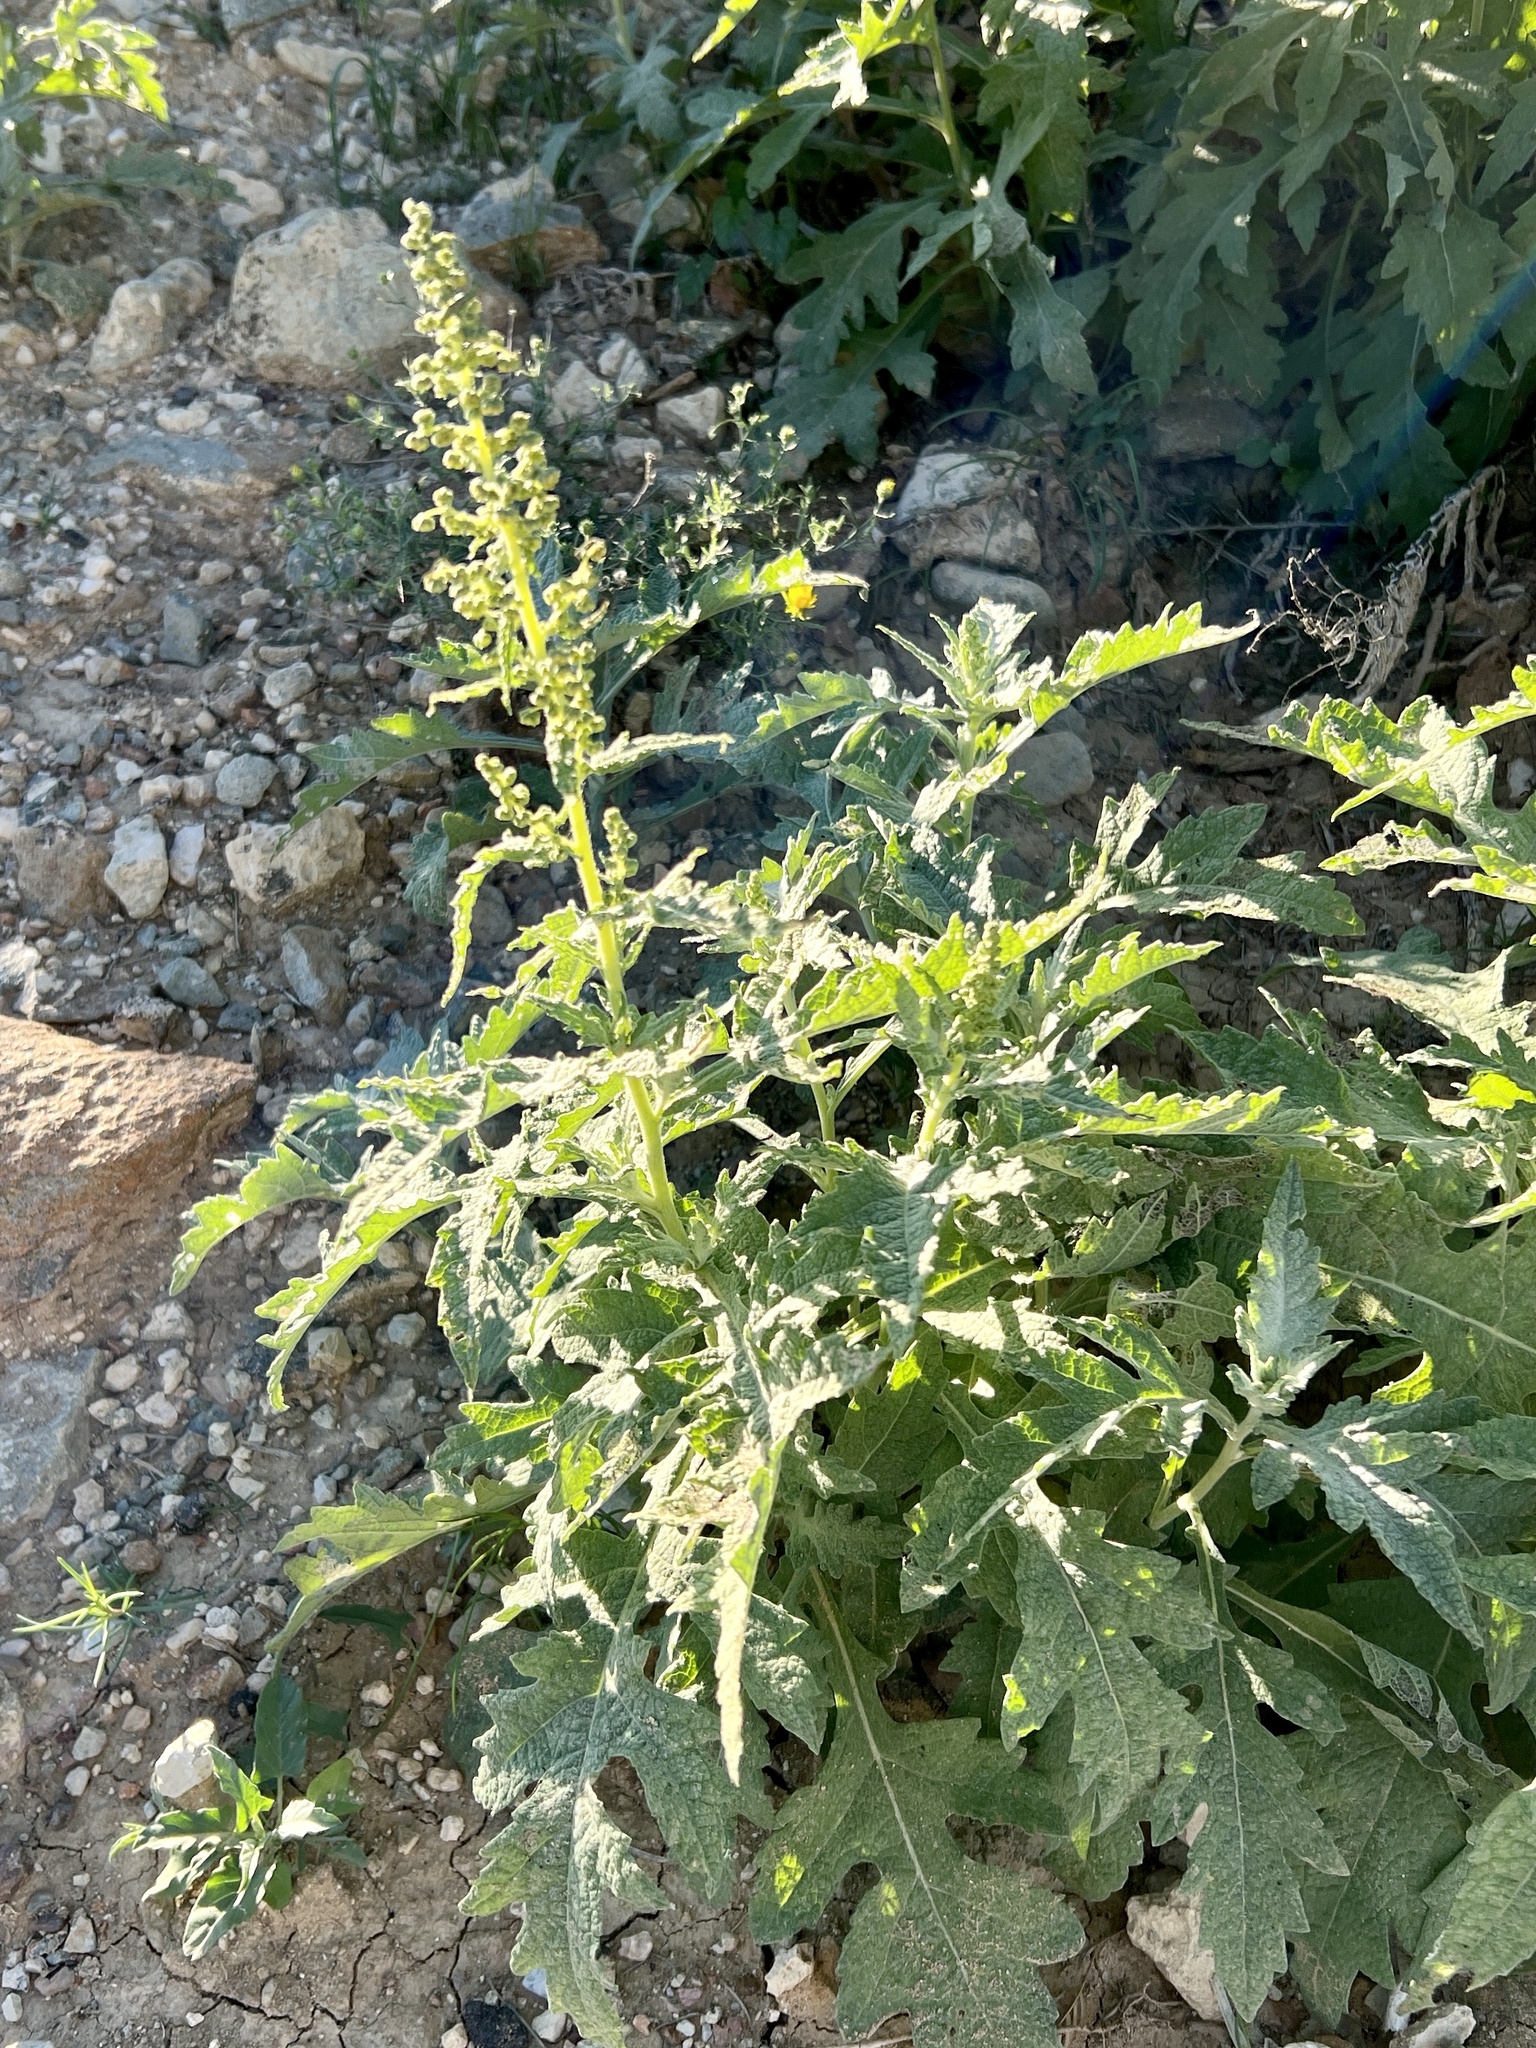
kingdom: Plantae
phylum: Tracheophyta
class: Magnoliopsida
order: Asterales
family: Asteraceae
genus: Ambrosia
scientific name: Ambrosia trifida
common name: Giant ragweed
